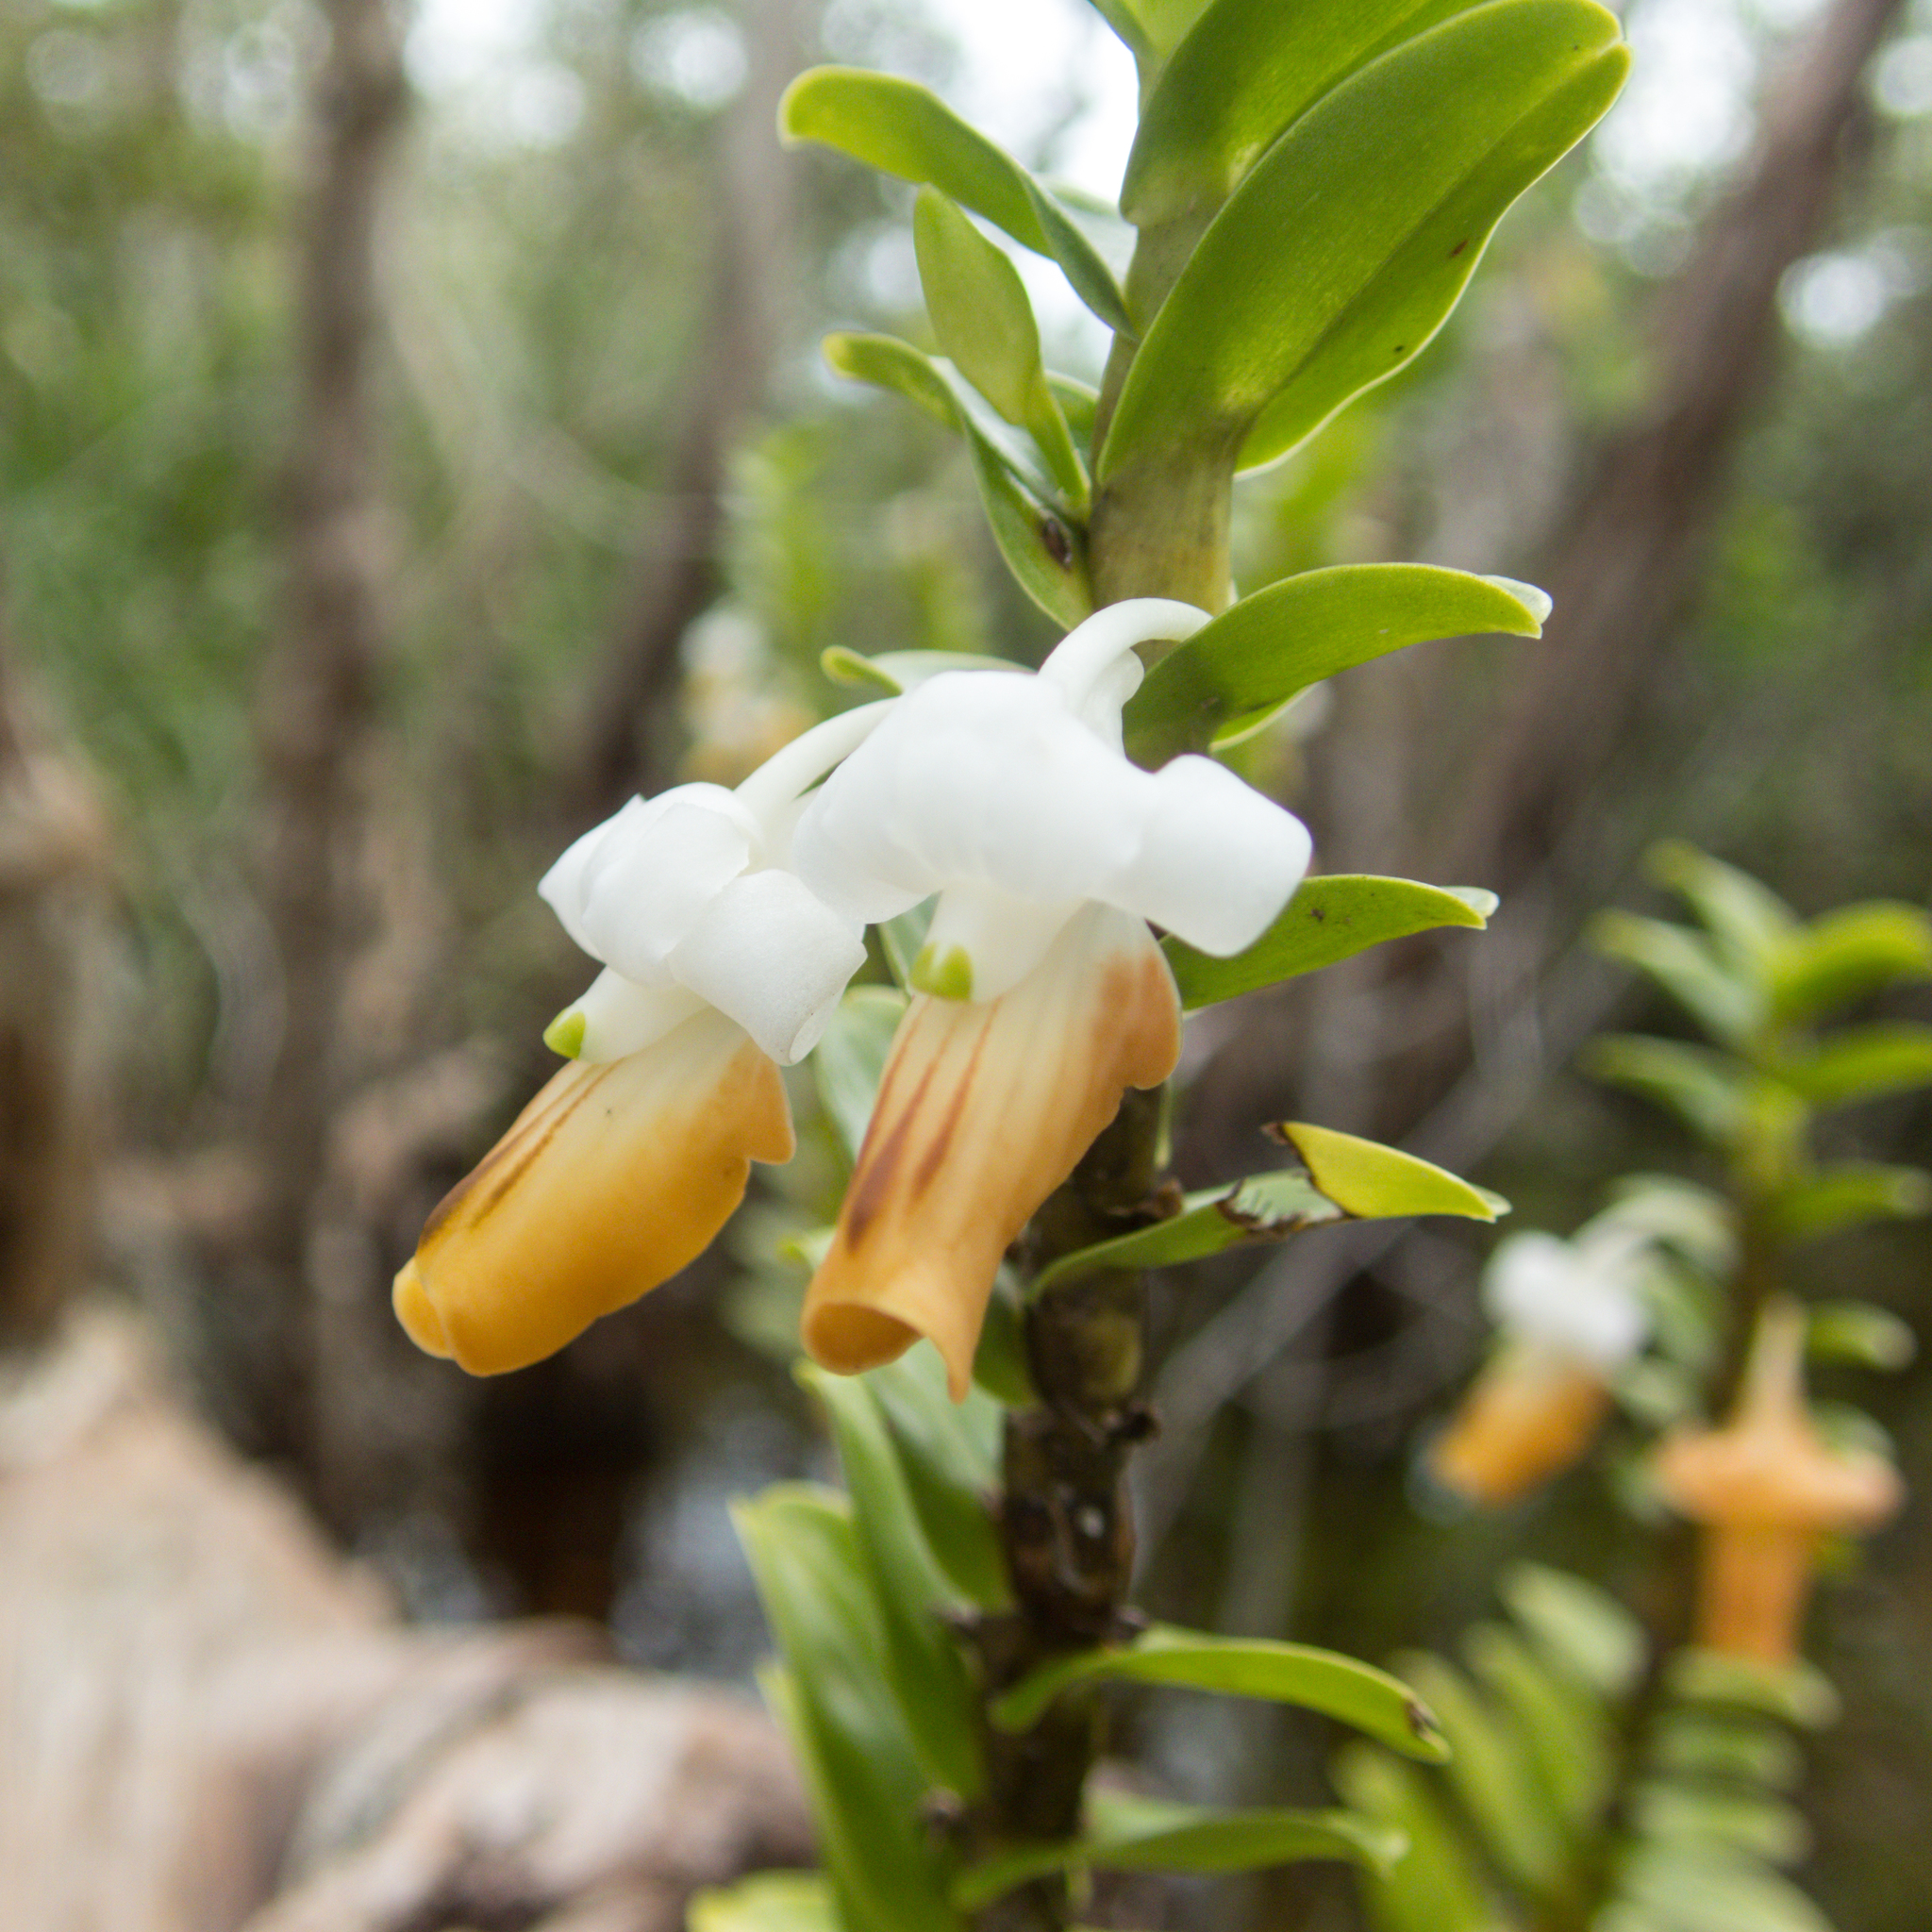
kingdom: Plantae
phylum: Tracheophyta
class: Liliopsida
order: Asparagales
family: Orchidaceae
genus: Dendrobium
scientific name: Dendrobium ellipsophyllum
